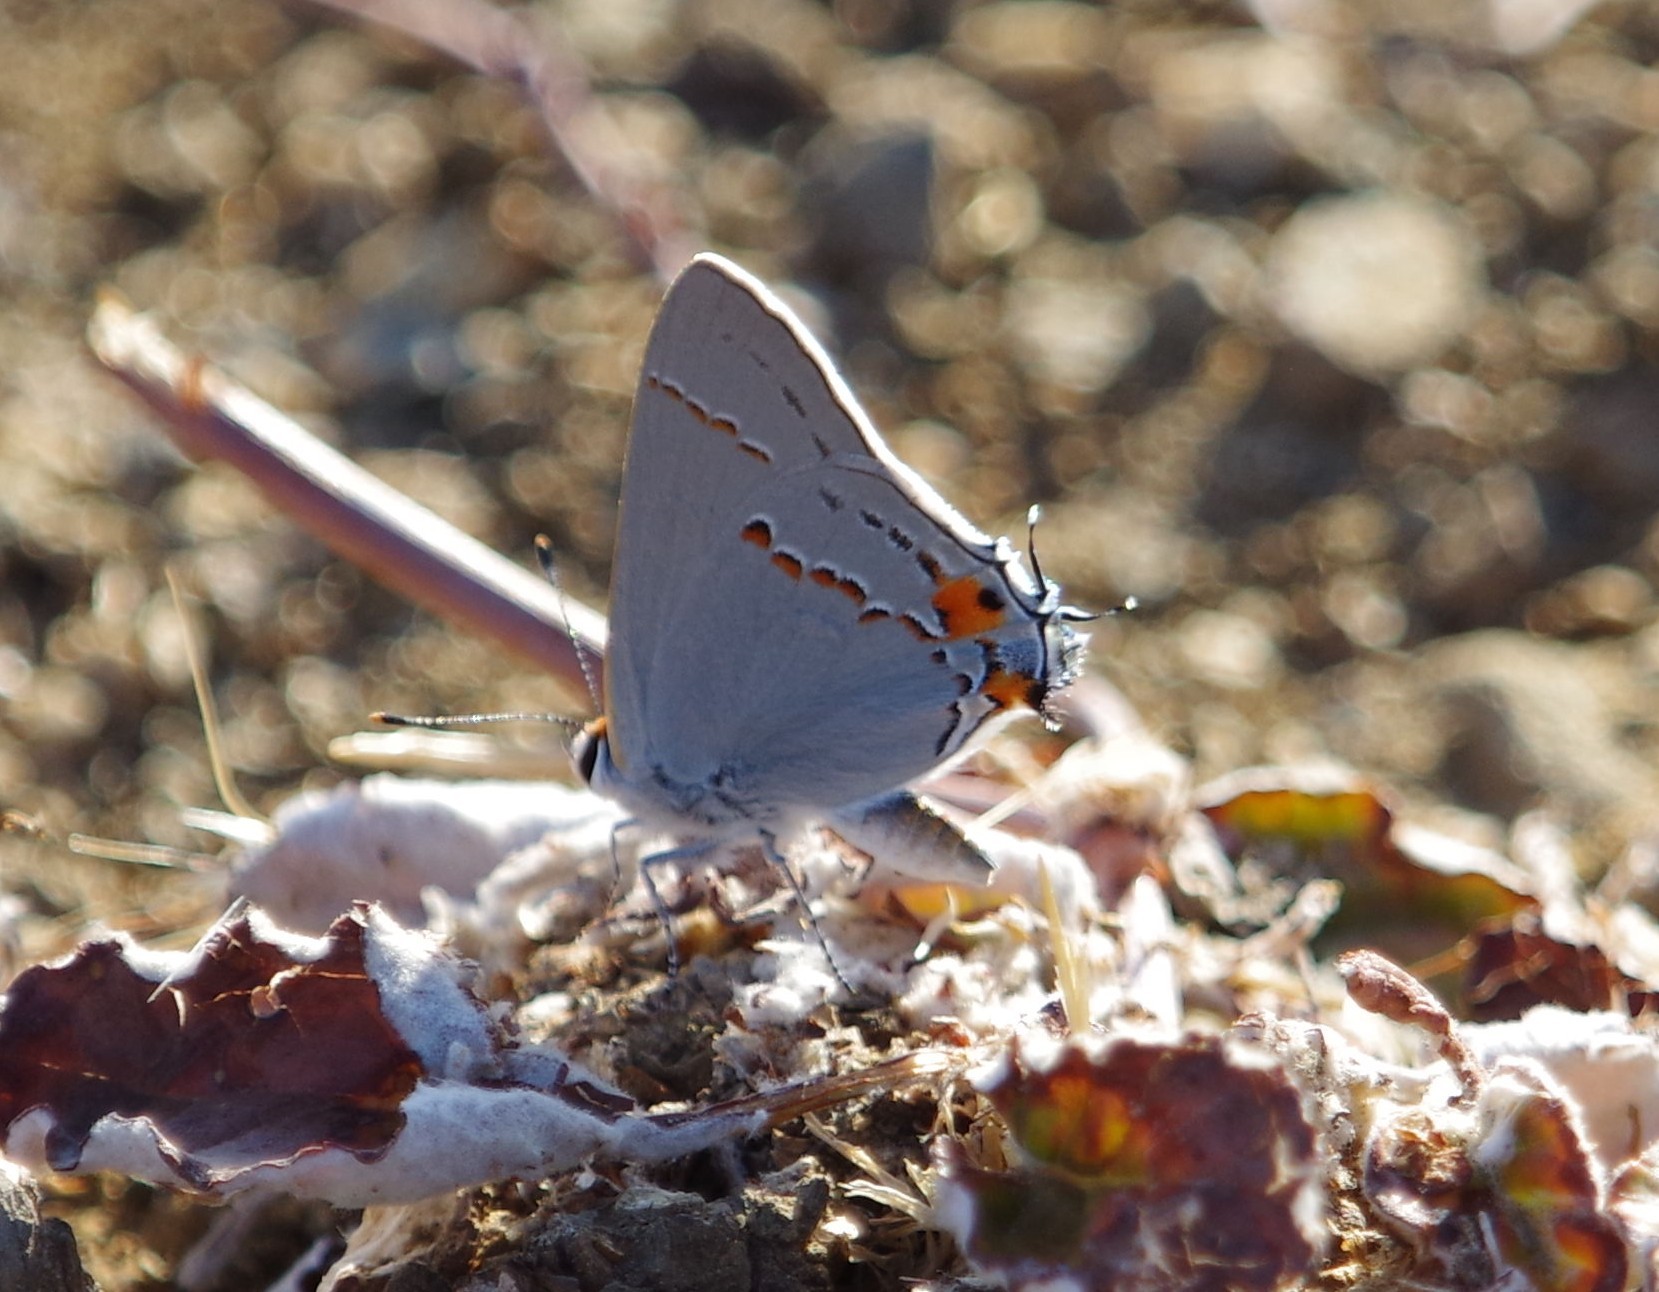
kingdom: Animalia
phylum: Arthropoda
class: Insecta
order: Lepidoptera
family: Lycaenidae
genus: Strymon
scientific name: Strymon melinus
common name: Gray hairstreak
